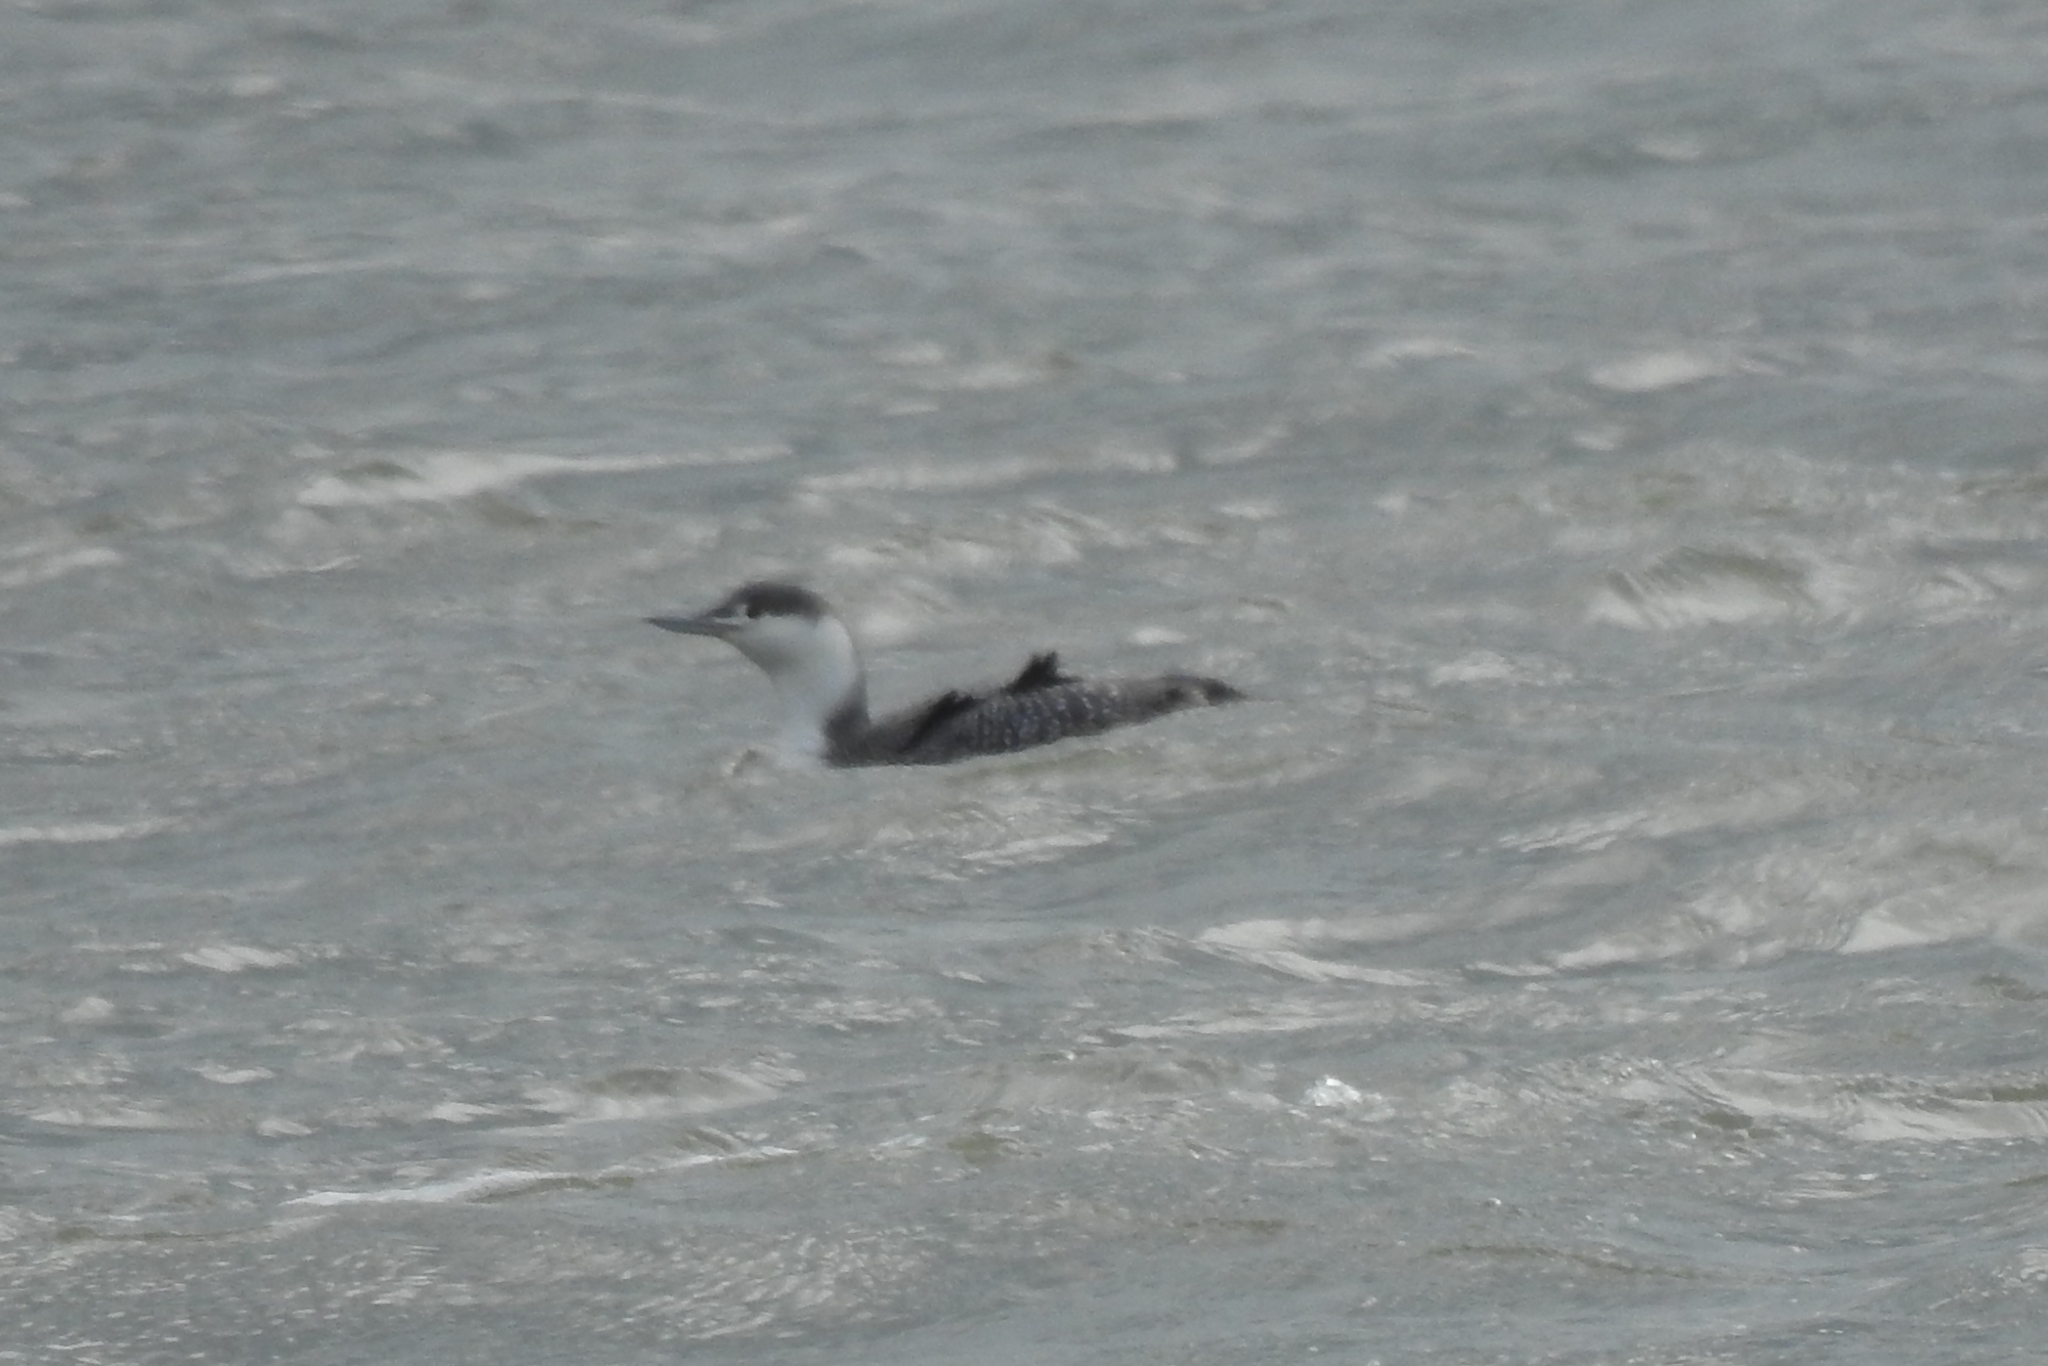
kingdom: Animalia
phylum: Chordata
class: Aves
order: Gaviiformes
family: Gaviidae
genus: Gavia
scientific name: Gavia stellata
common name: Red-throated loon
